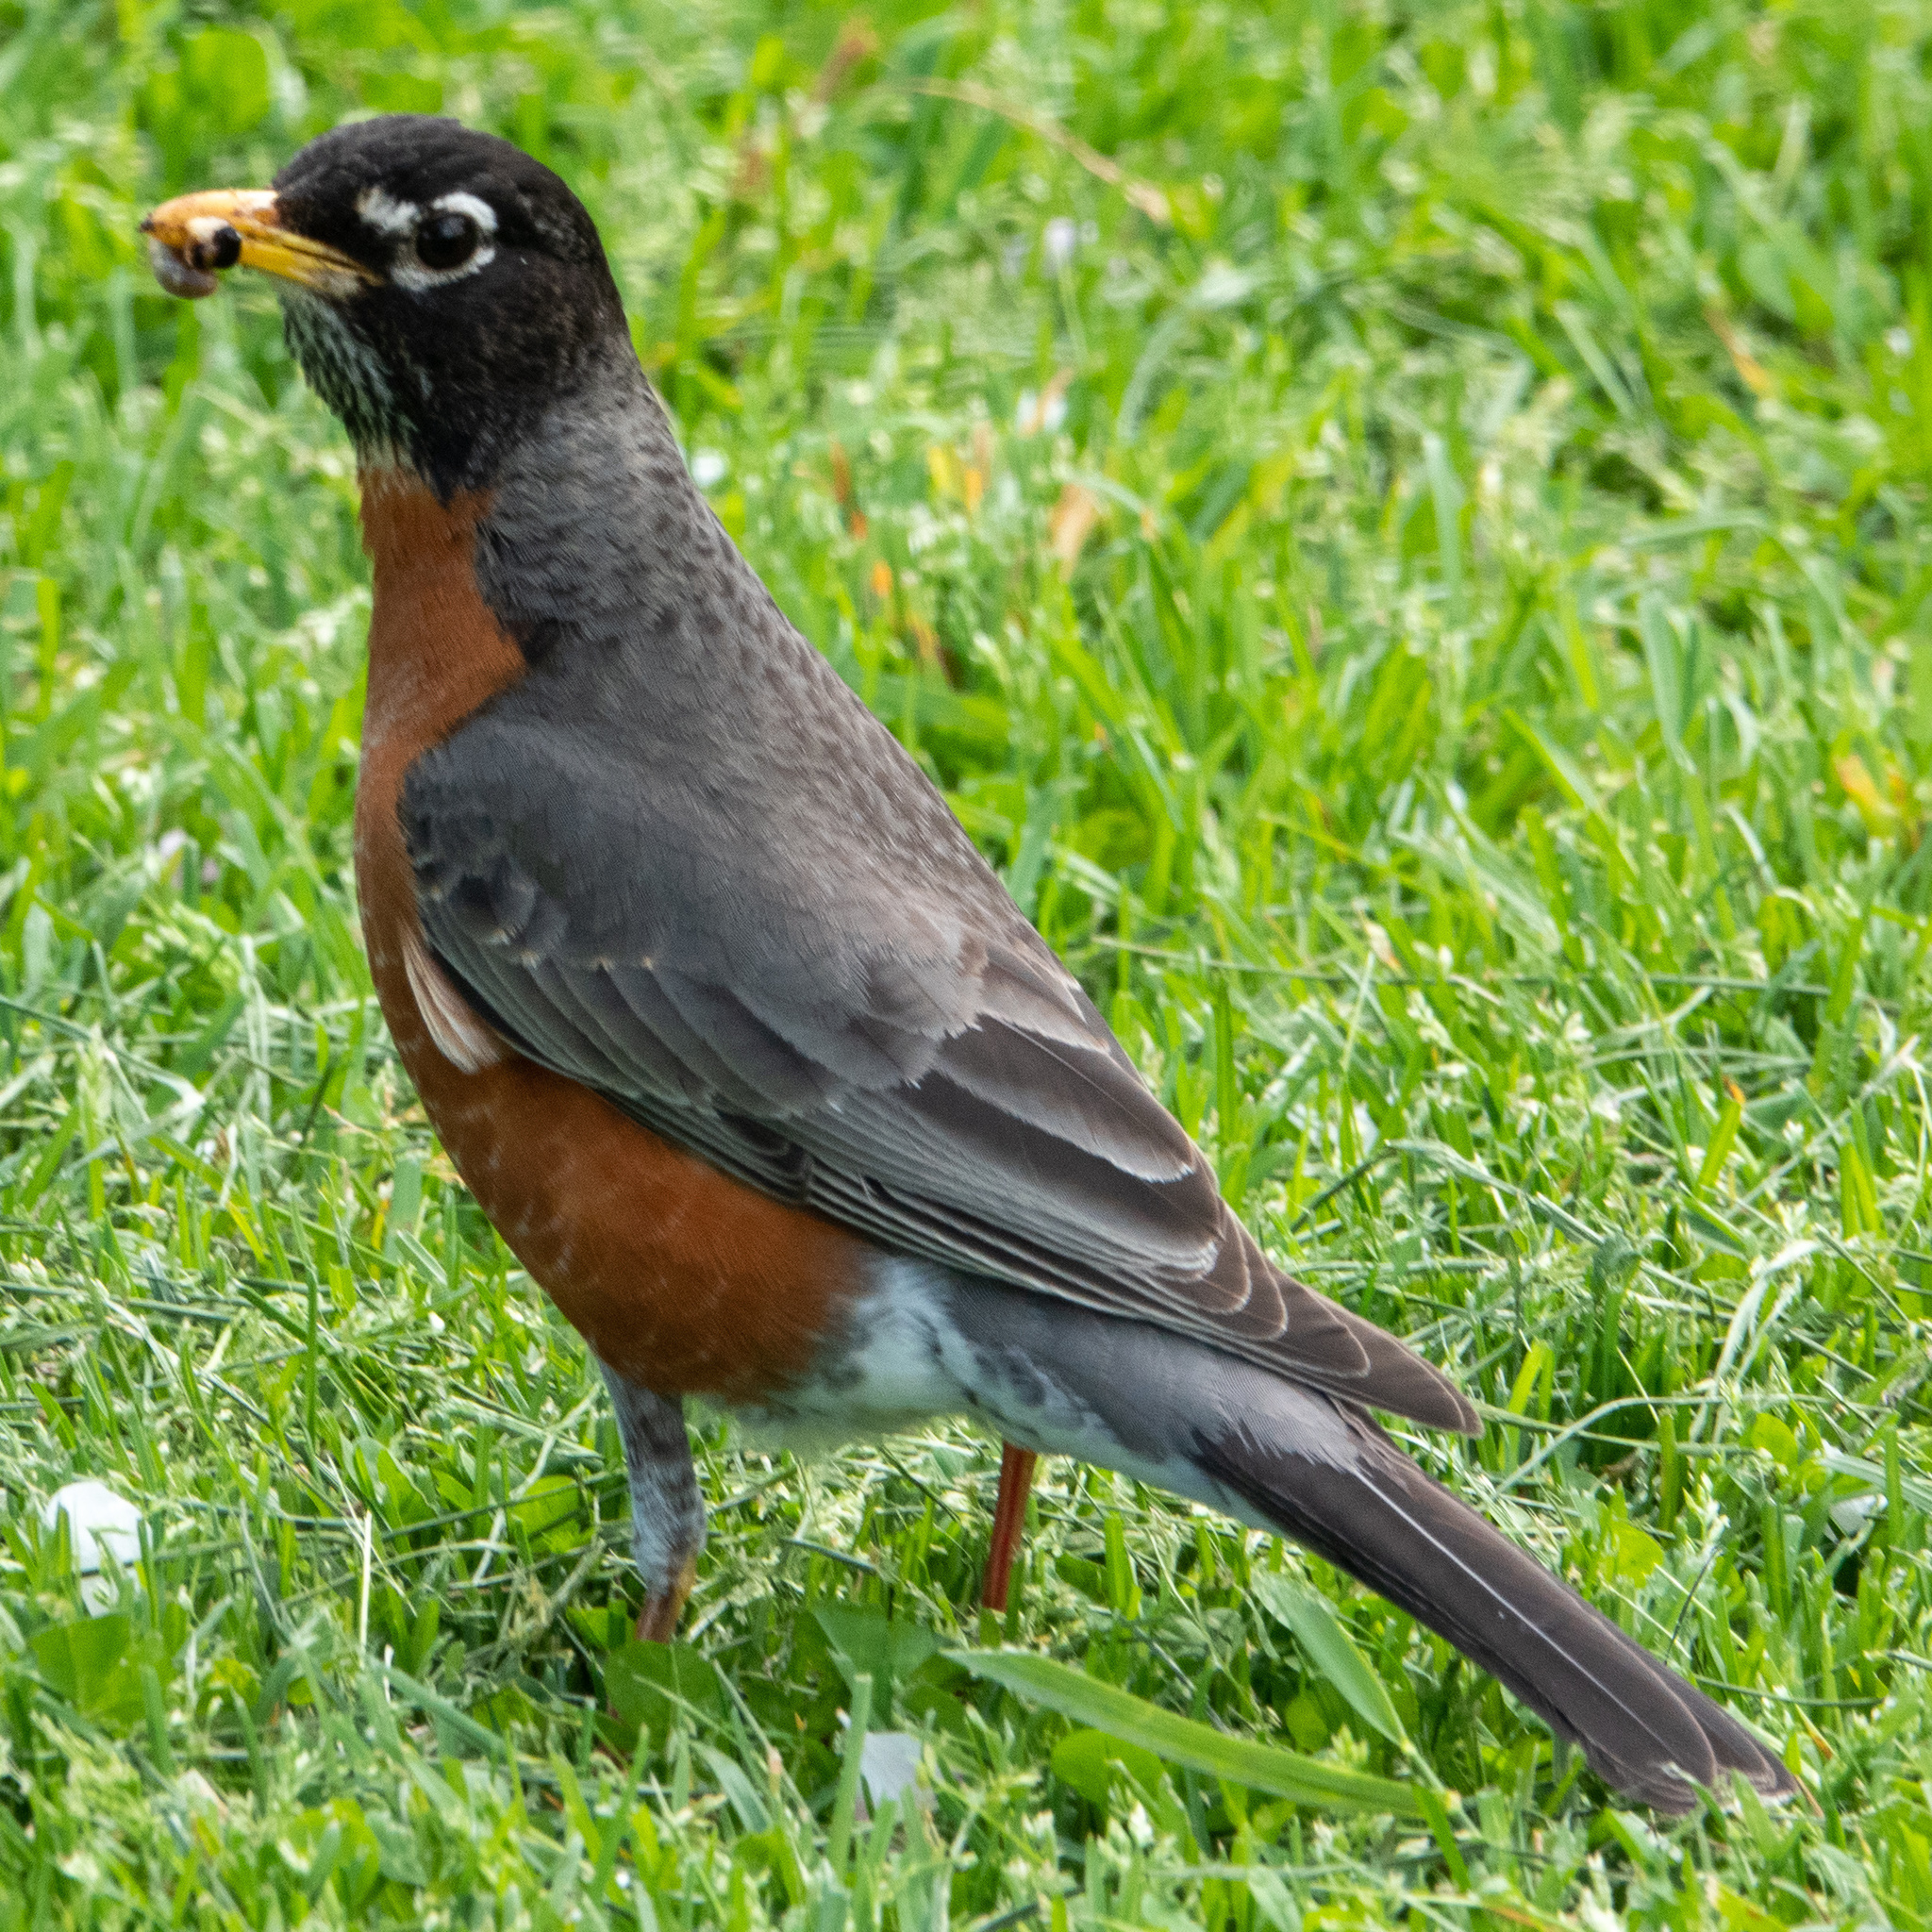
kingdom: Animalia
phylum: Chordata
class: Aves
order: Passeriformes
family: Turdidae
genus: Turdus
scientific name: Turdus migratorius
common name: American robin
